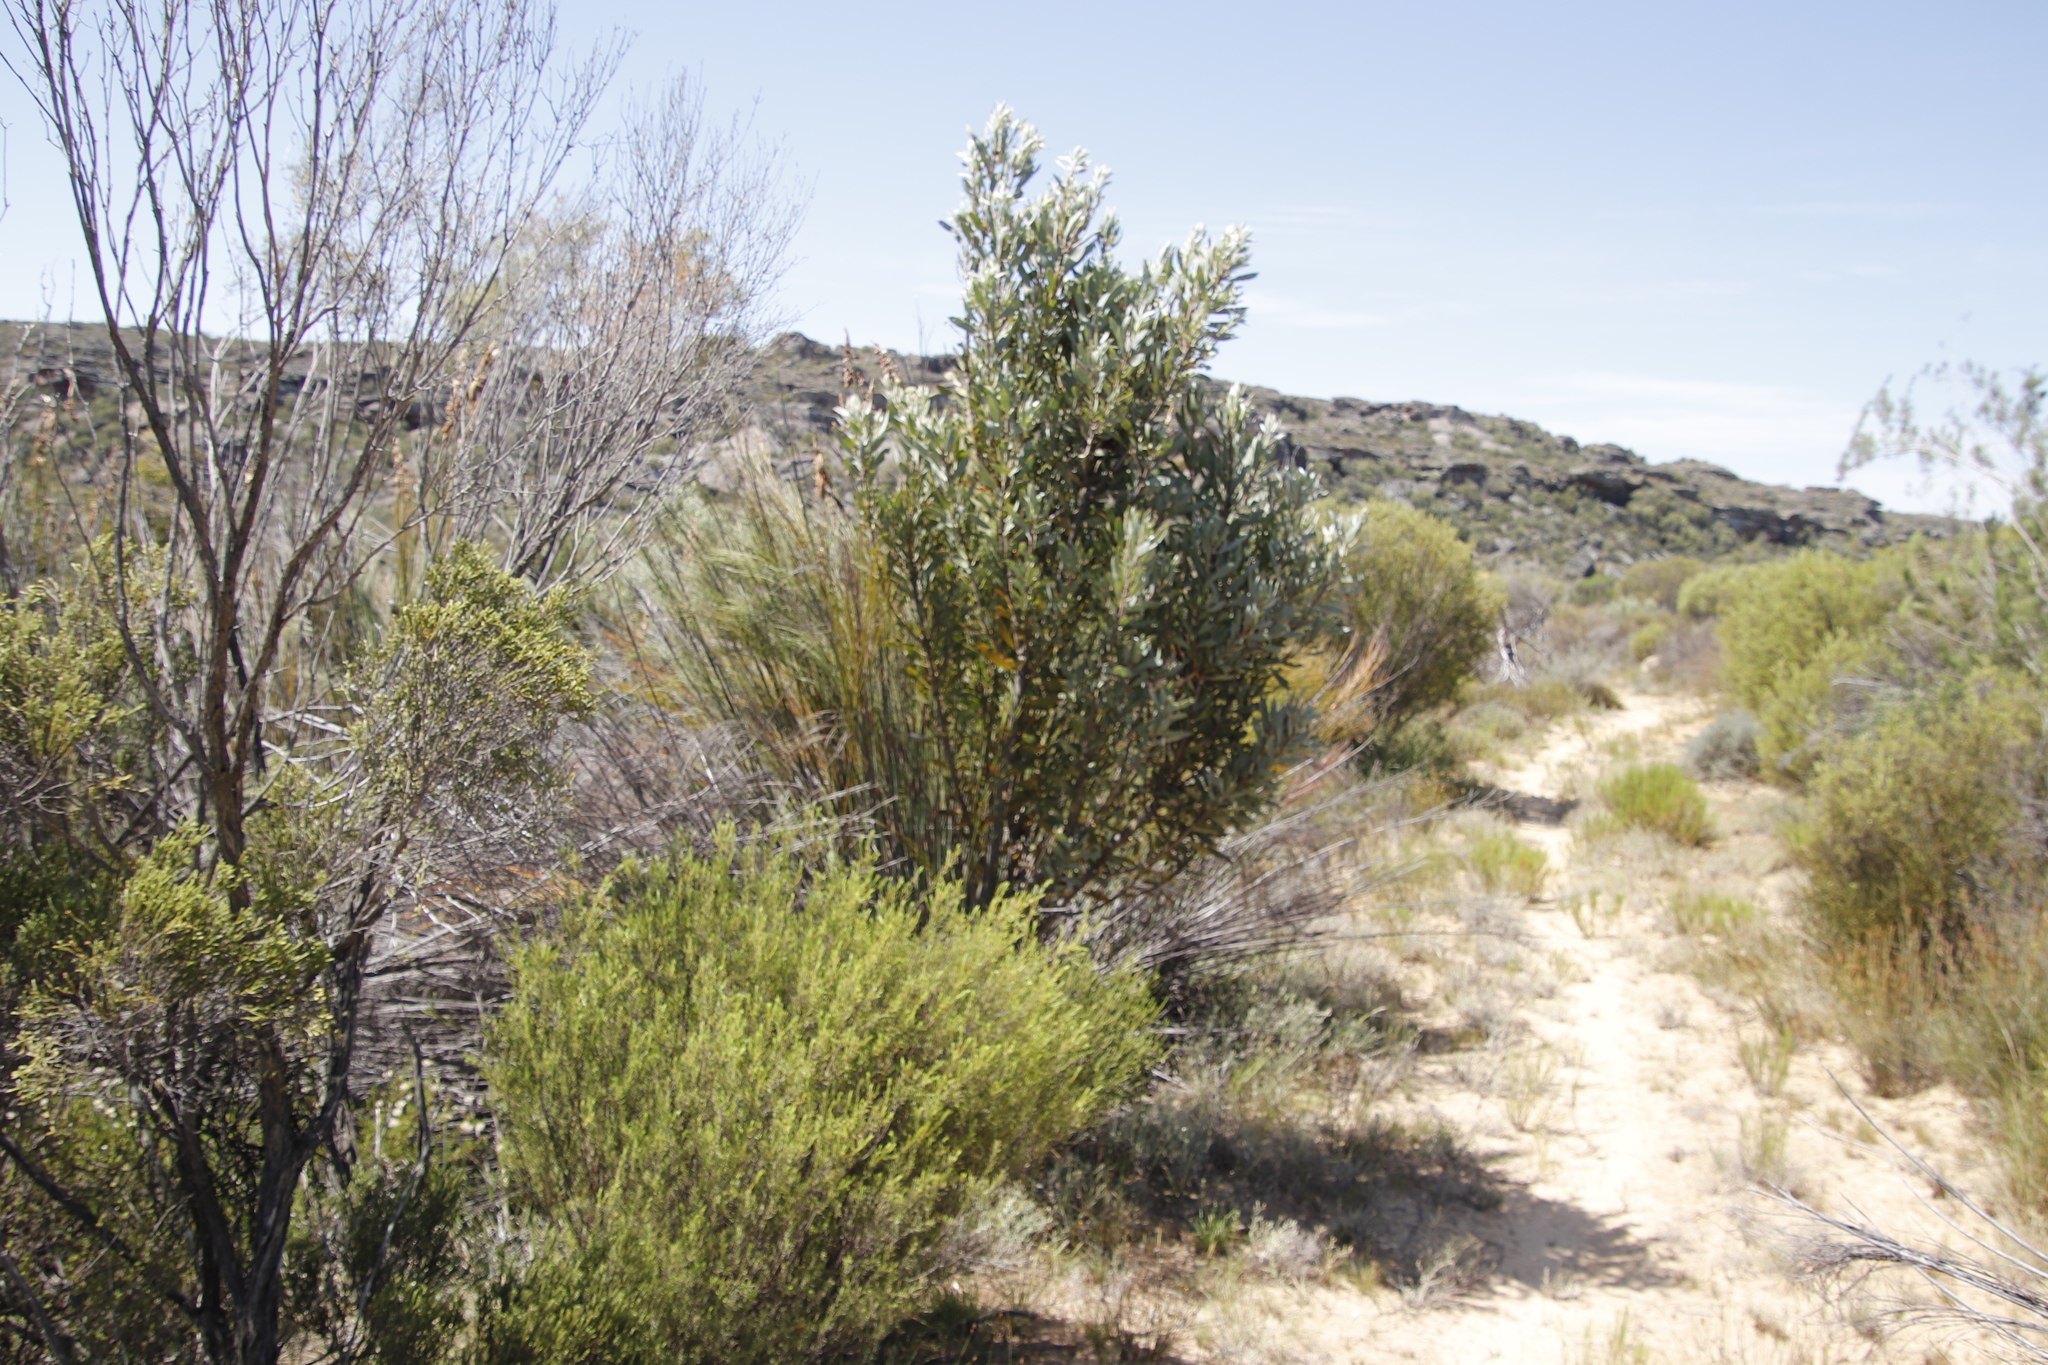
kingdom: Plantae
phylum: Tracheophyta
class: Magnoliopsida
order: Proteales
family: Proteaceae
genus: Protea
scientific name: Protea laurifolia
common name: Grey-leaf sugarbsh
